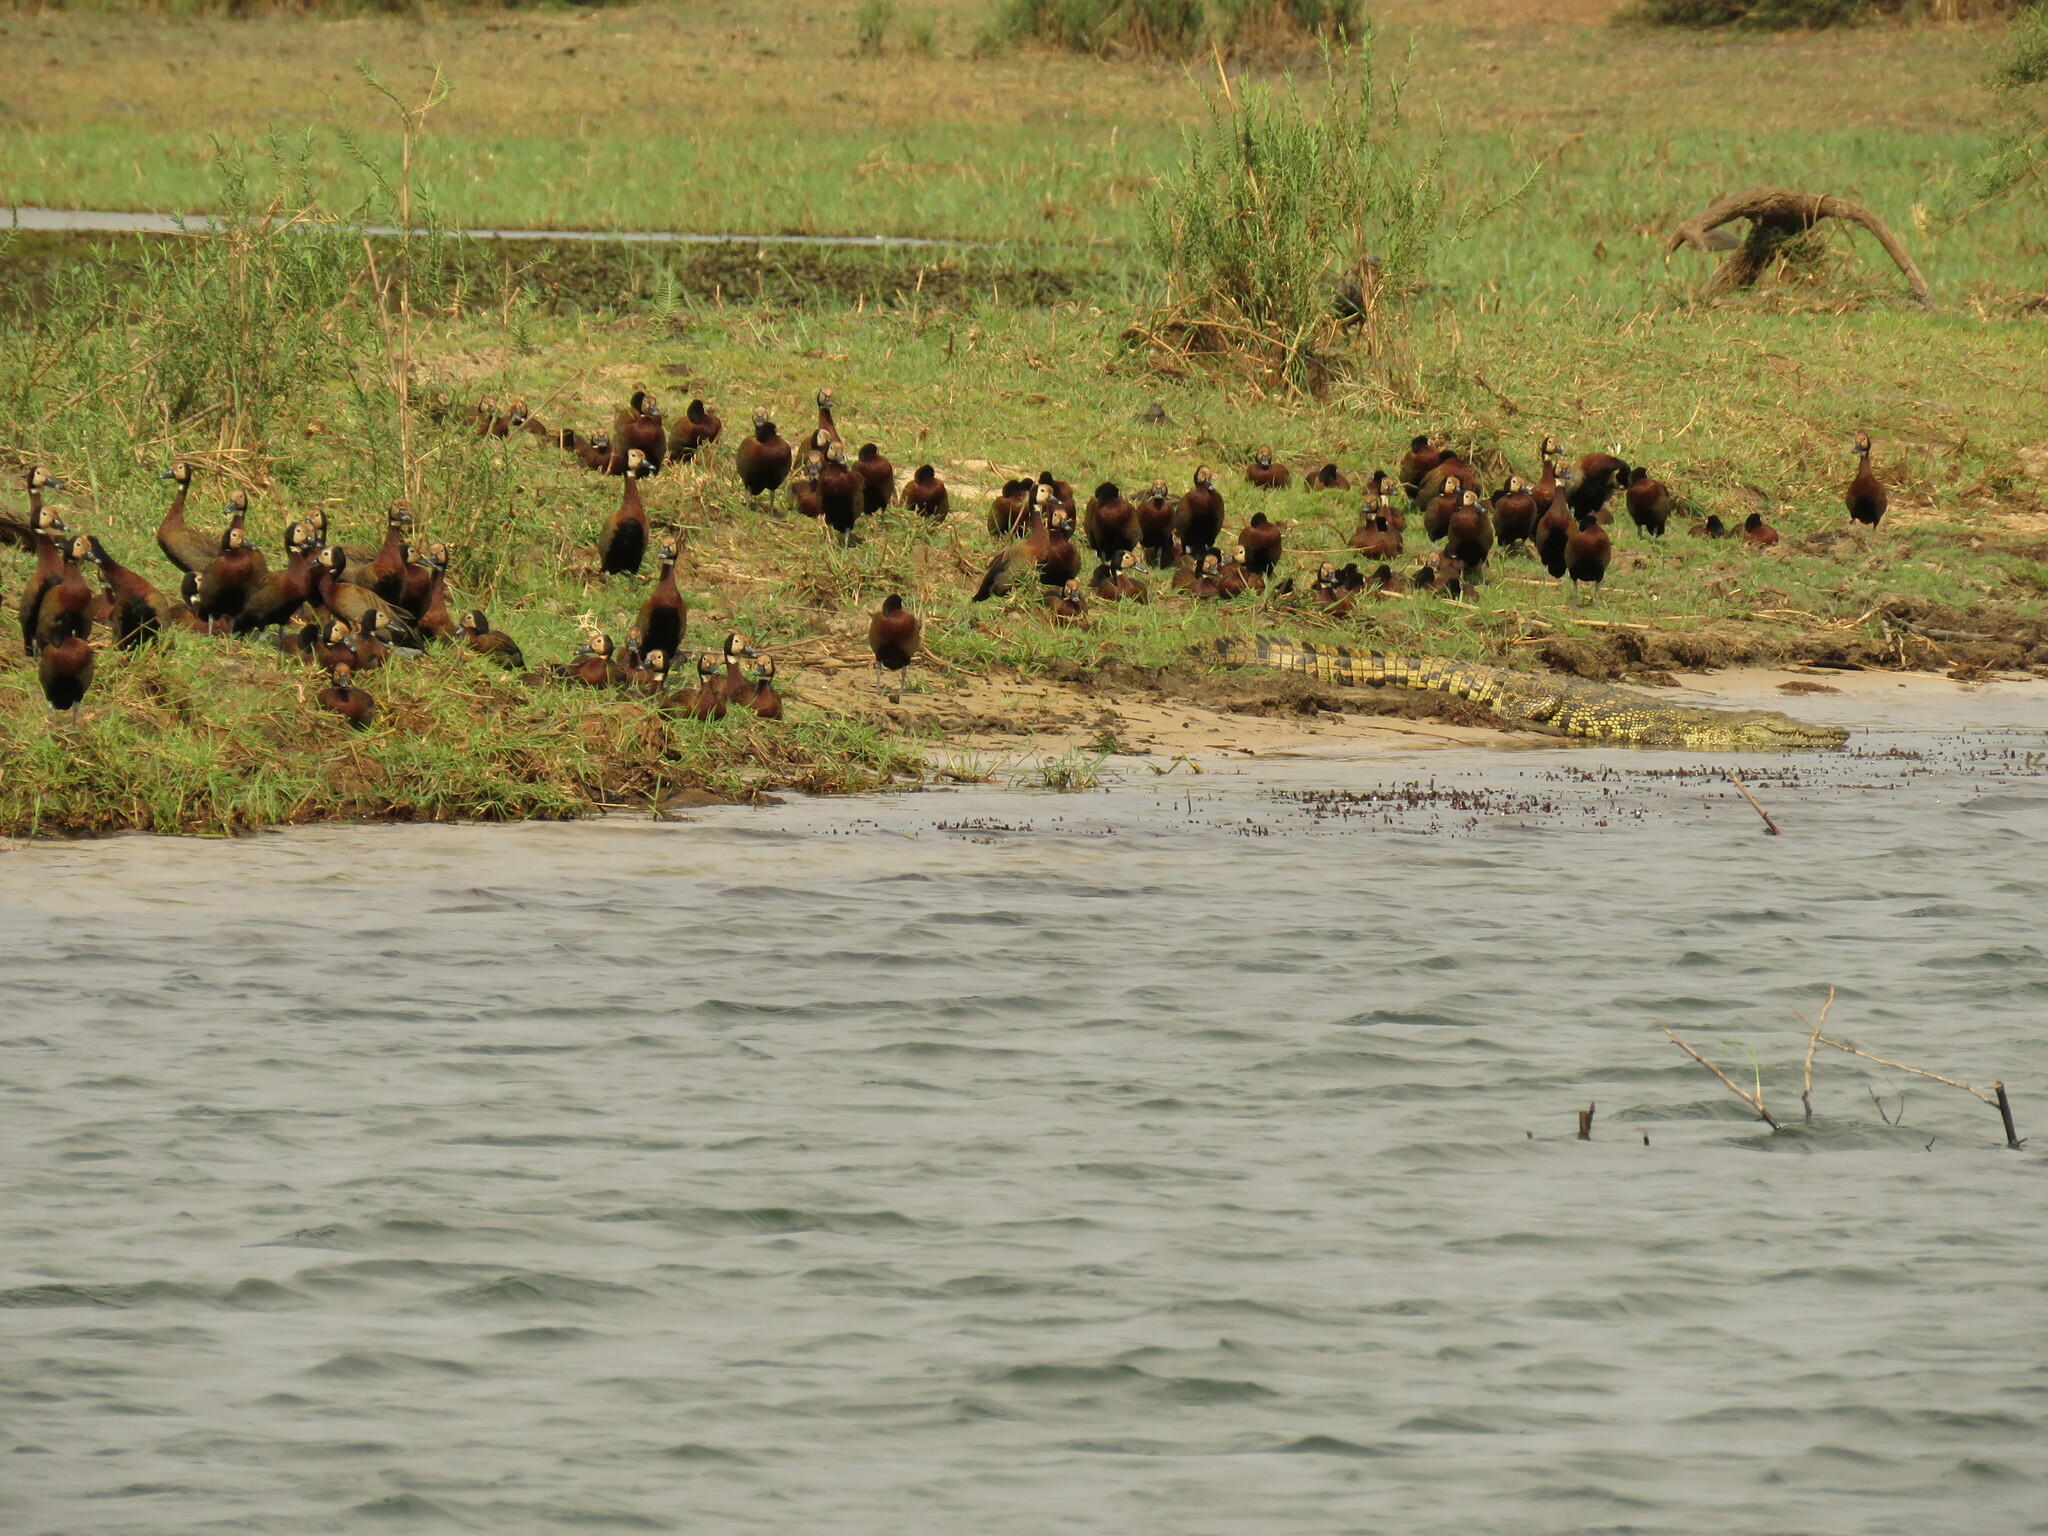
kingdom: Animalia
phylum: Chordata
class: Aves
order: Anseriformes
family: Anatidae
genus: Dendrocygna
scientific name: Dendrocygna viduata
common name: White-faced whistling duck
